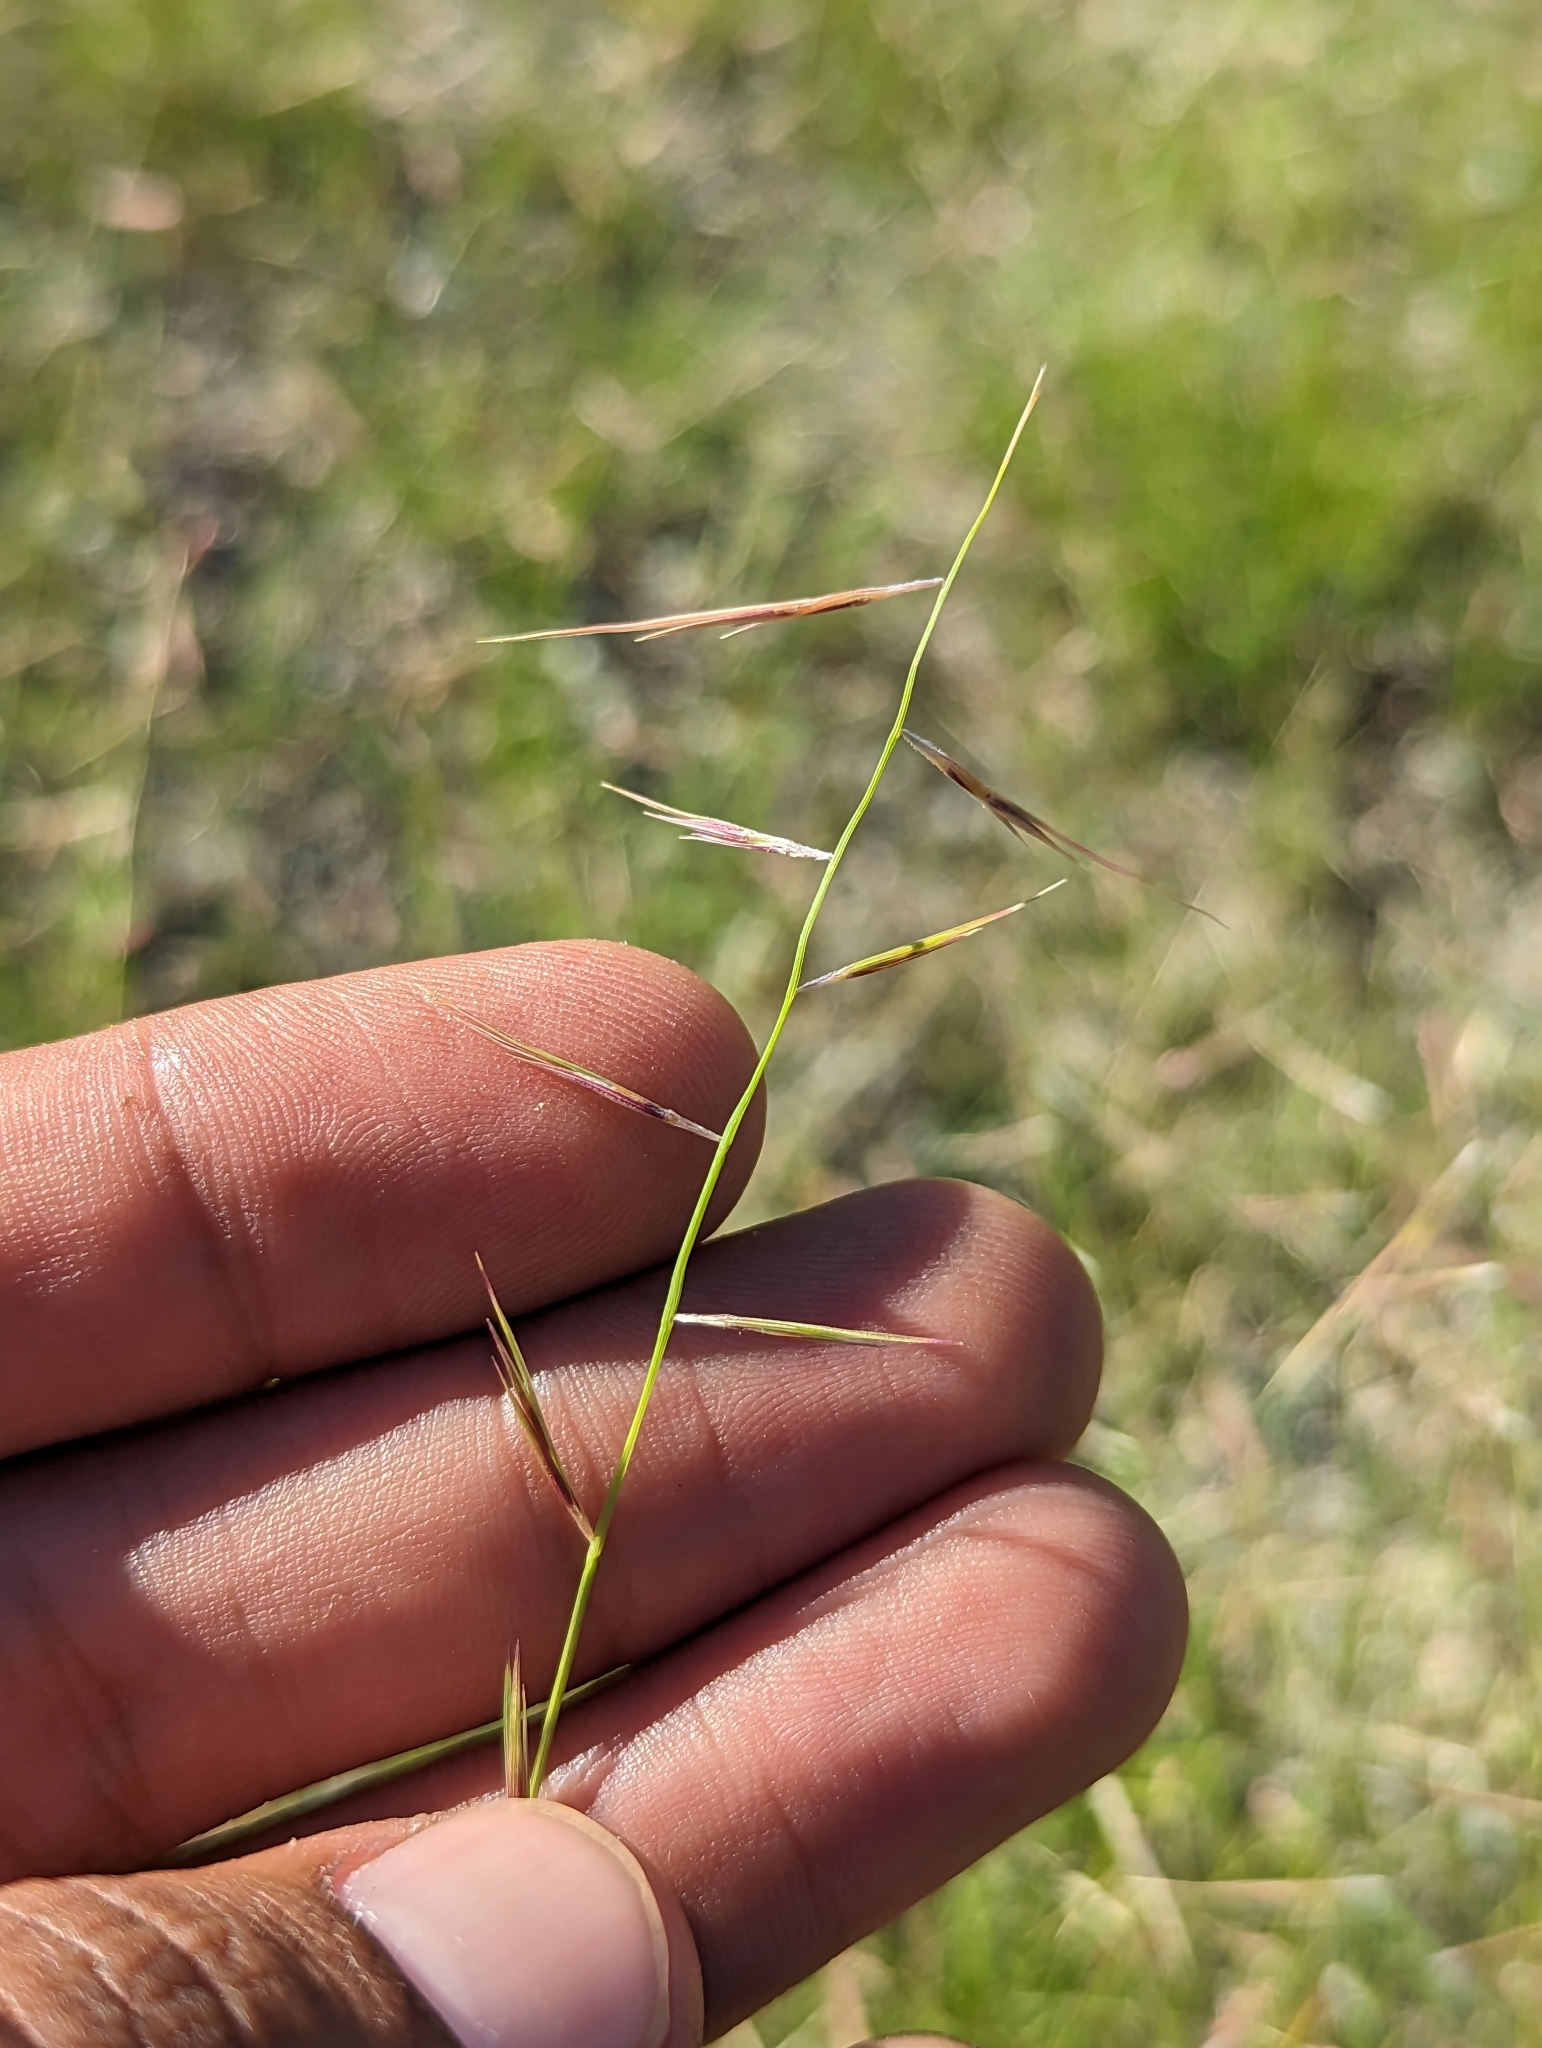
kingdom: Plantae
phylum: Tracheophyta
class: Liliopsida
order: Poales
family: Poaceae
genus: Bouteloua
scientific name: Bouteloua aristidoides
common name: Needle grama
